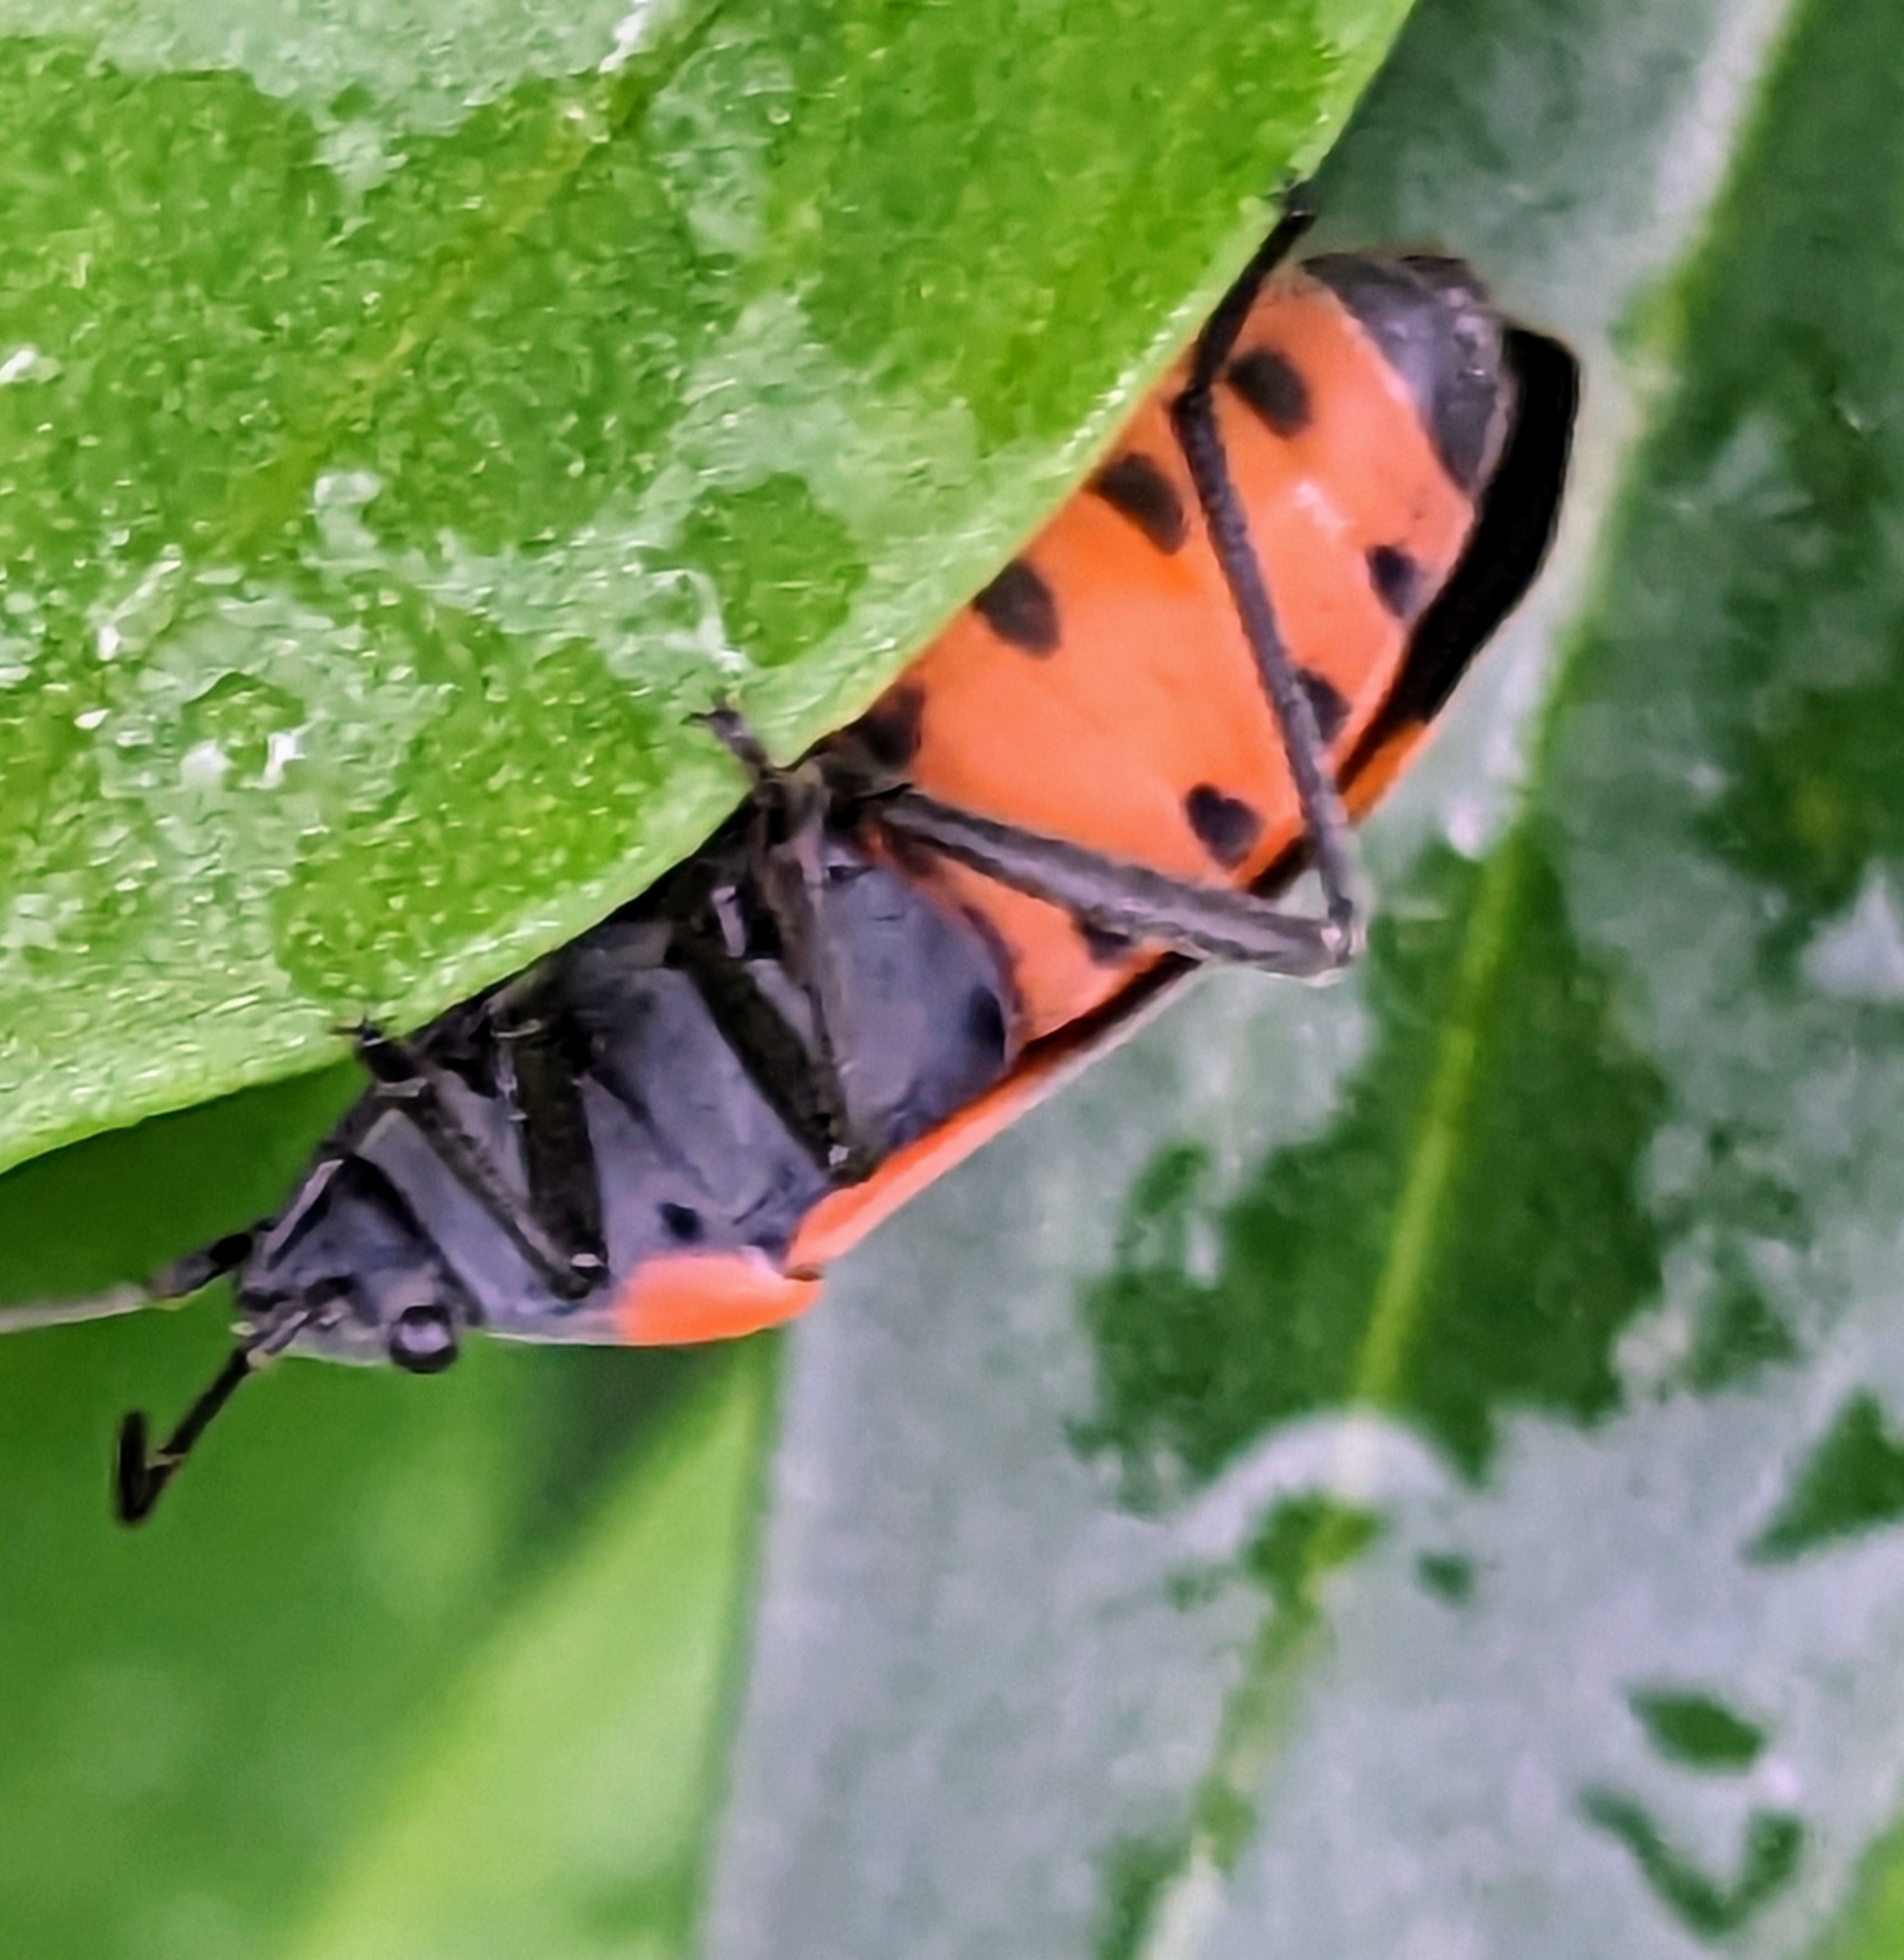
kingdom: Animalia
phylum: Arthropoda
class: Insecta
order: Hemiptera
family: Lygaeidae
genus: Lygaeus
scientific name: Lygaeus kalmii
